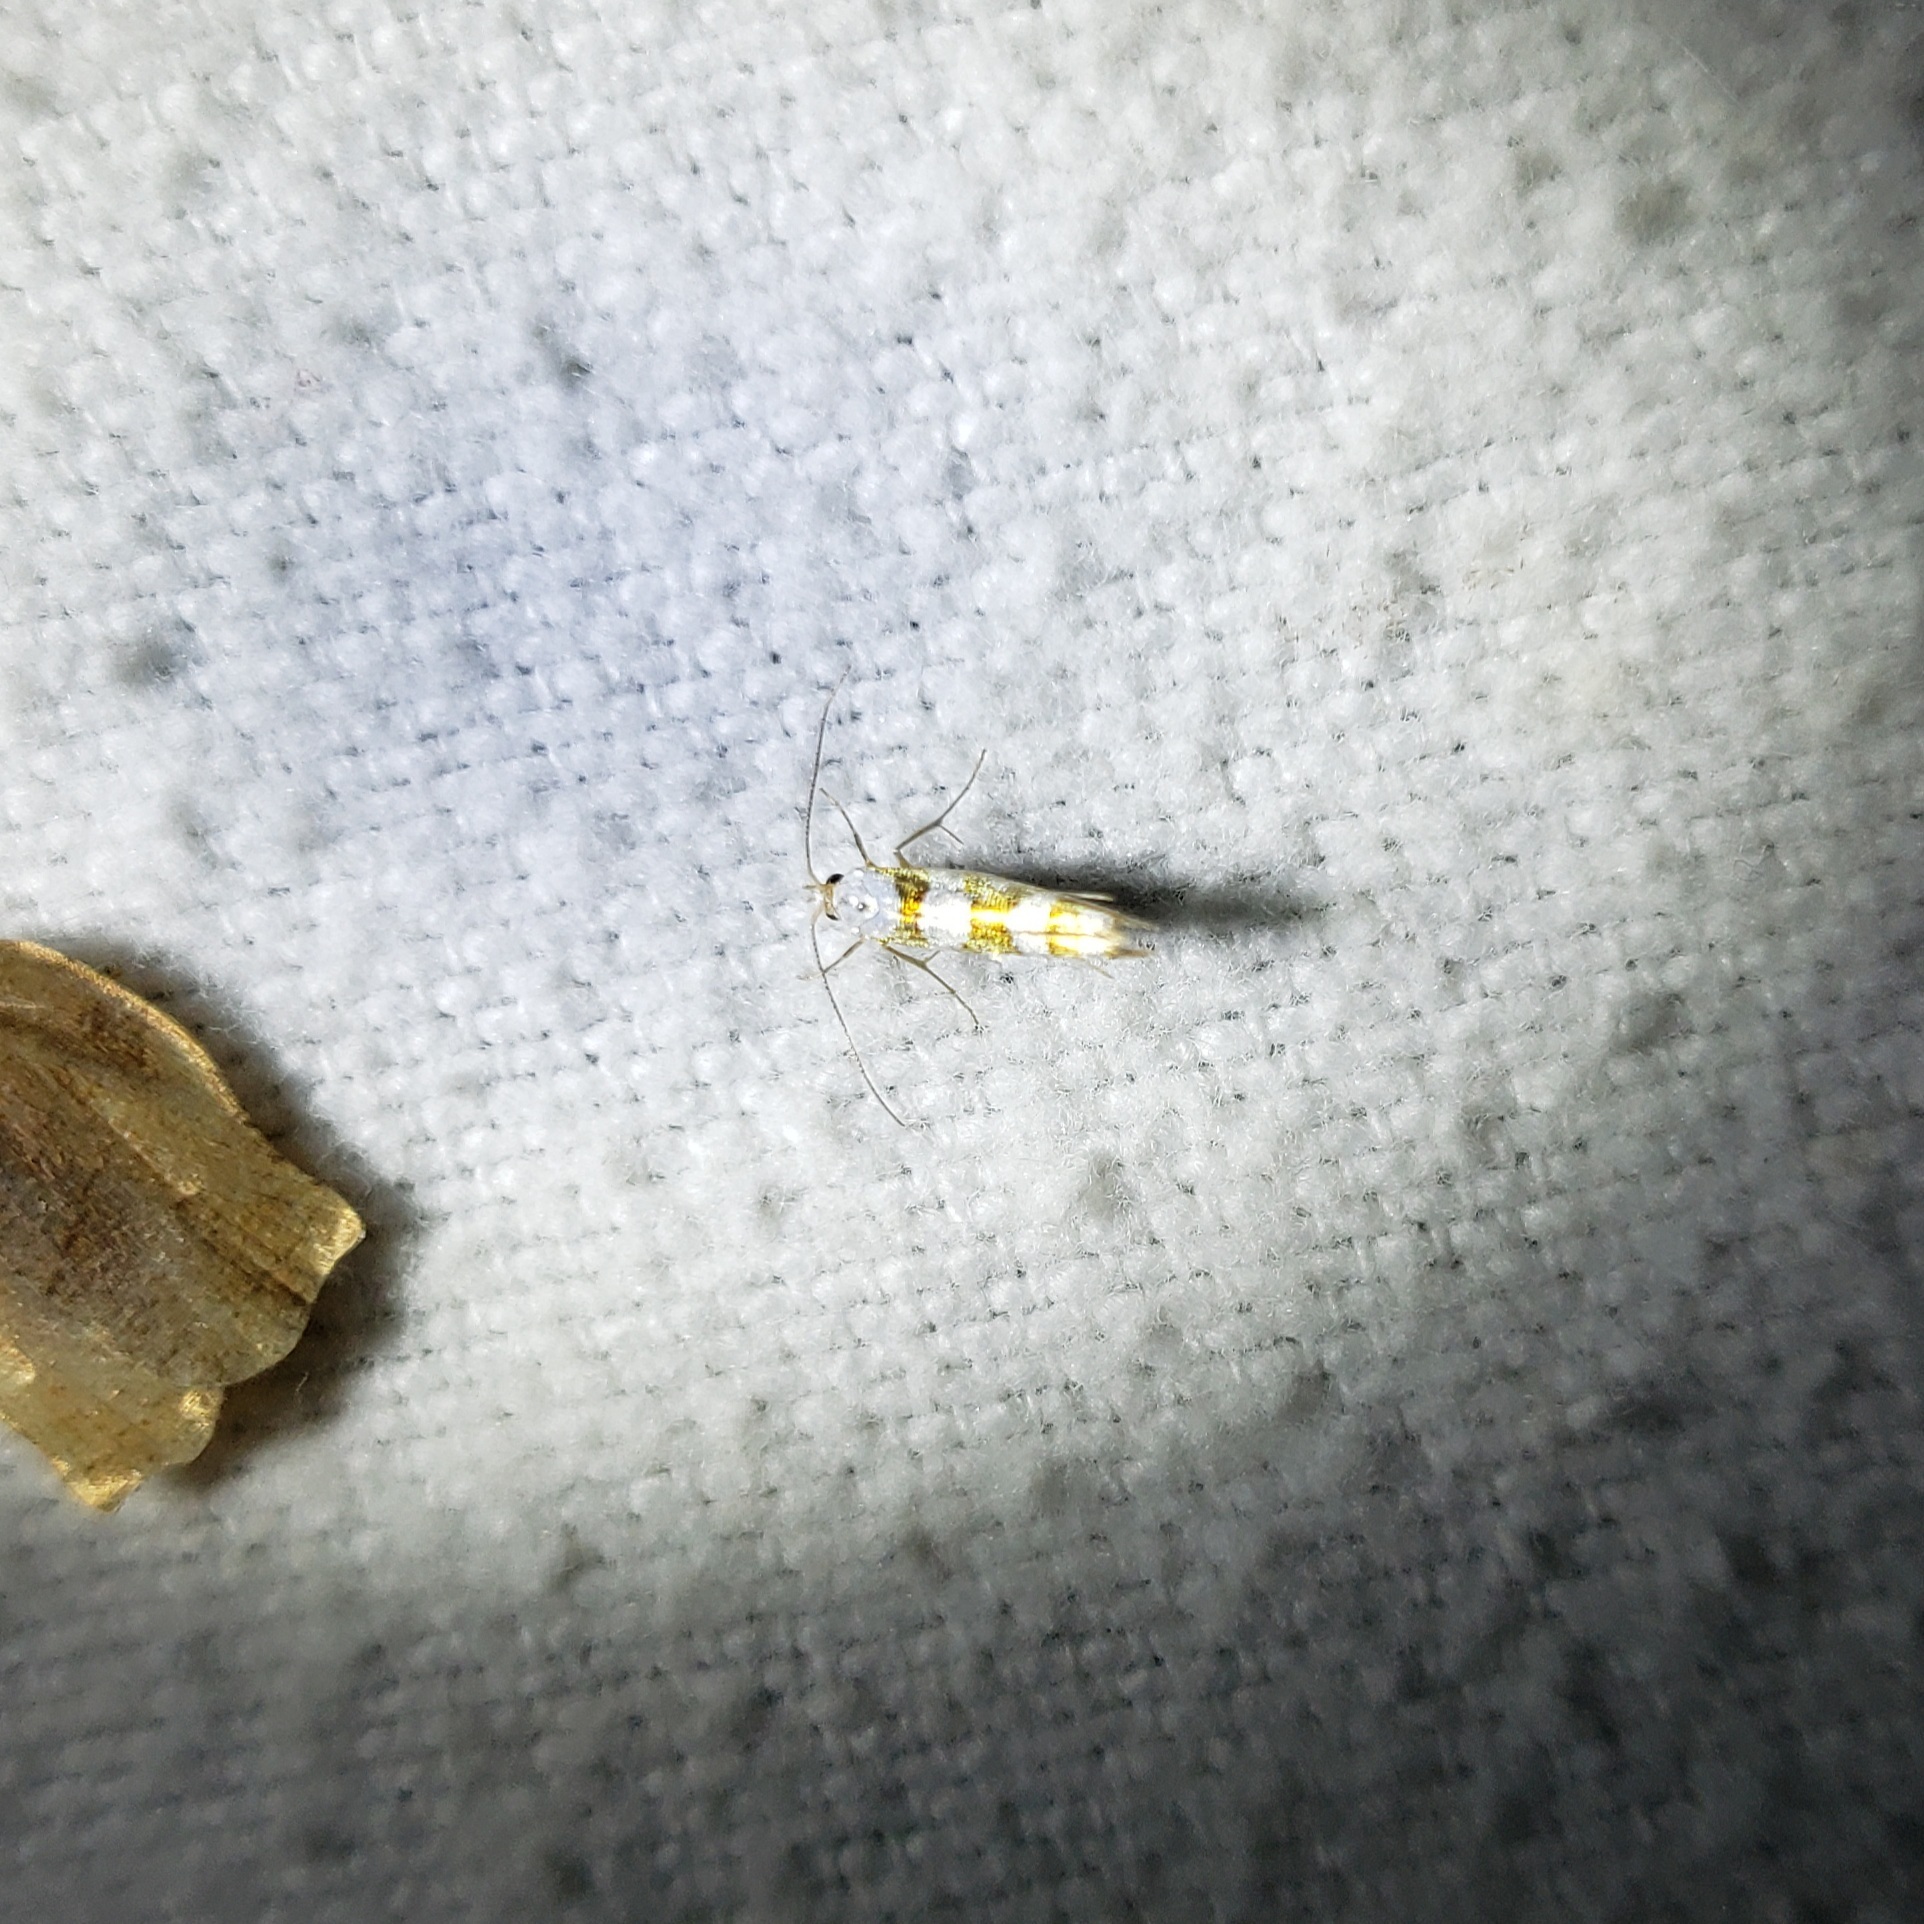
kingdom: Animalia
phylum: Arthropoda
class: Insecta
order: Lepidoptera
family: Argyresthiidae
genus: Argyresthia
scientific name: Argyresthia calliphanes
